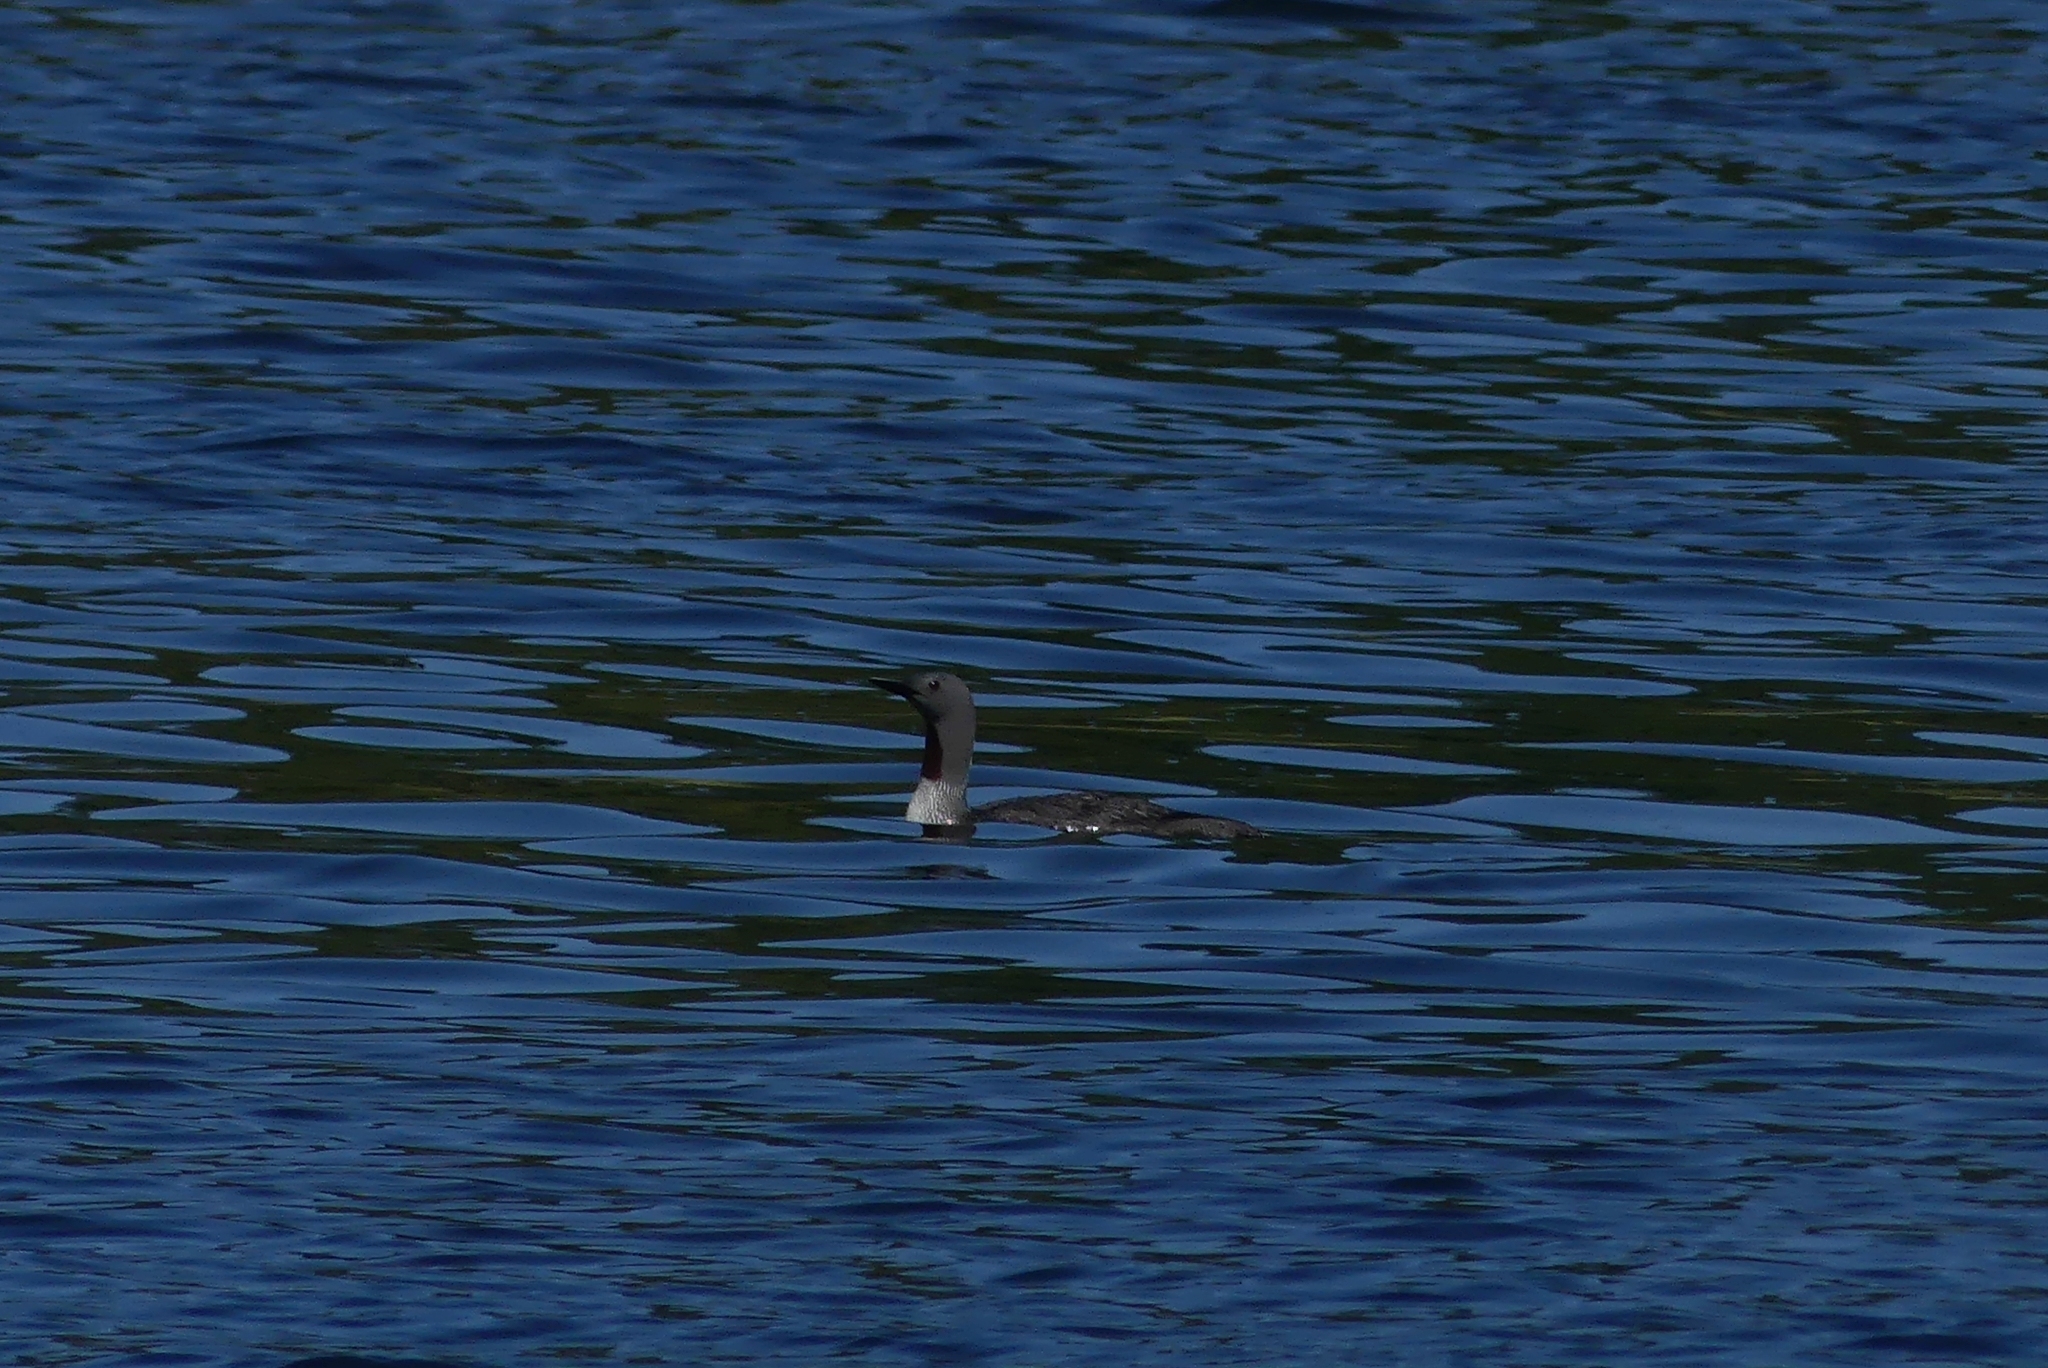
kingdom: Animalia
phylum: Chordata
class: Aves
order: Gaviiformes
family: Gaviidae
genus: Gavia
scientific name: Gavia stellata
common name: Red-throated loon
